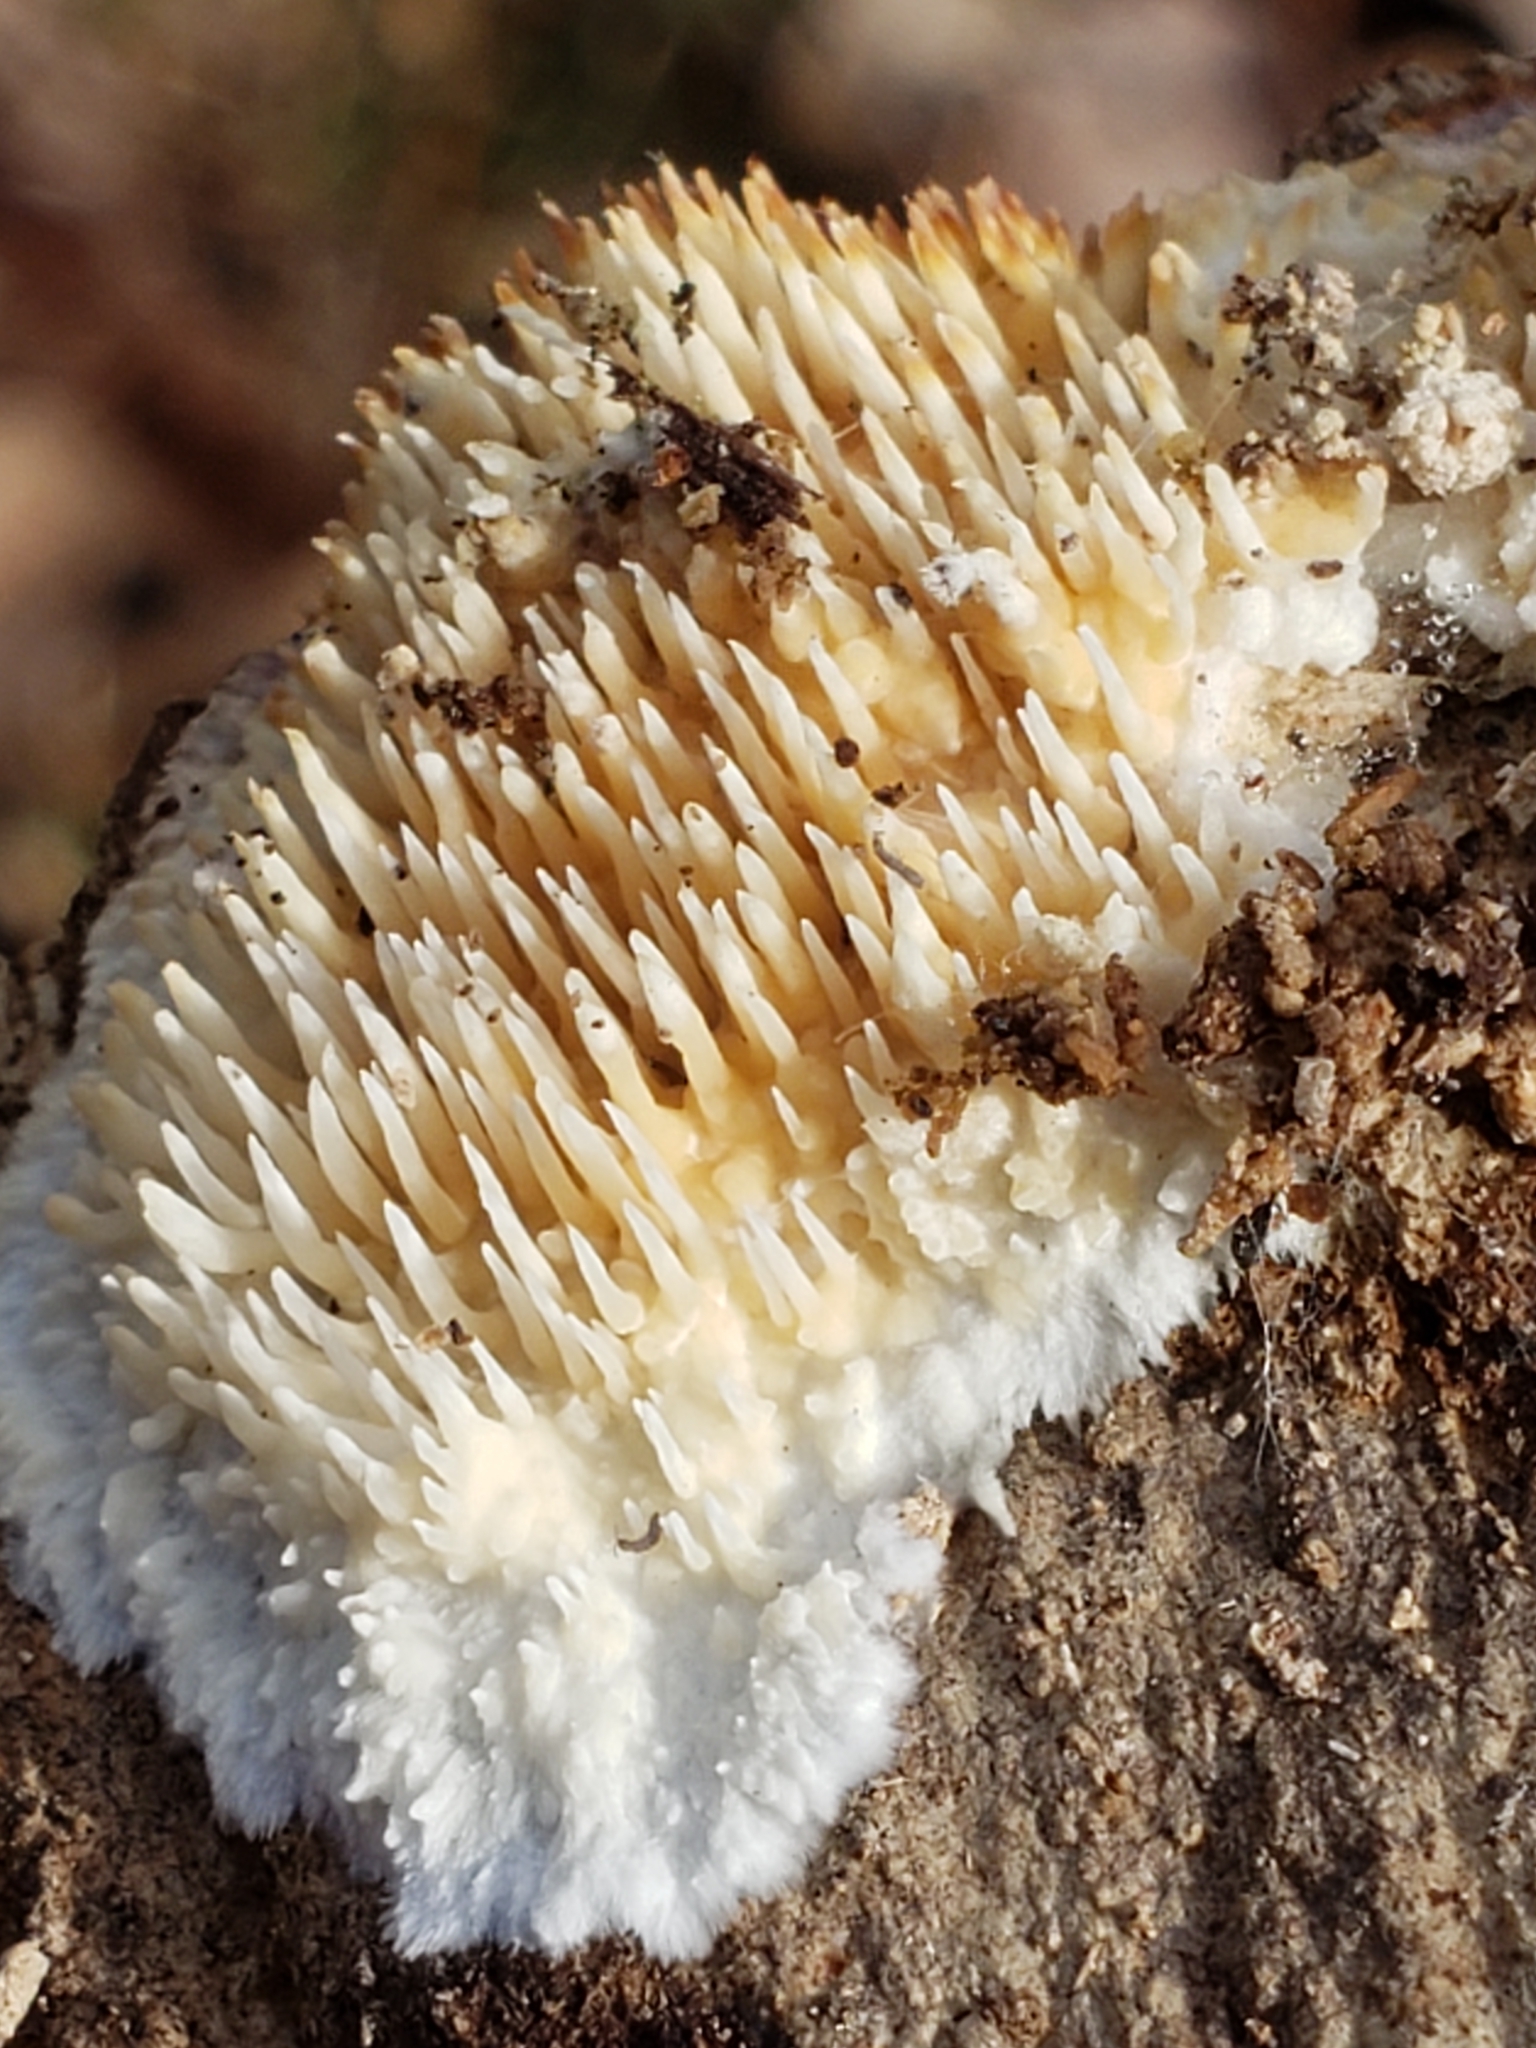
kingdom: Fungi
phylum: Basidiomycota
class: Agaricomycetes
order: Agaricales
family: Radulomycetaceae
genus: Radulomyces
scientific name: Radulomyces copelandii
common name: Asian beauty
